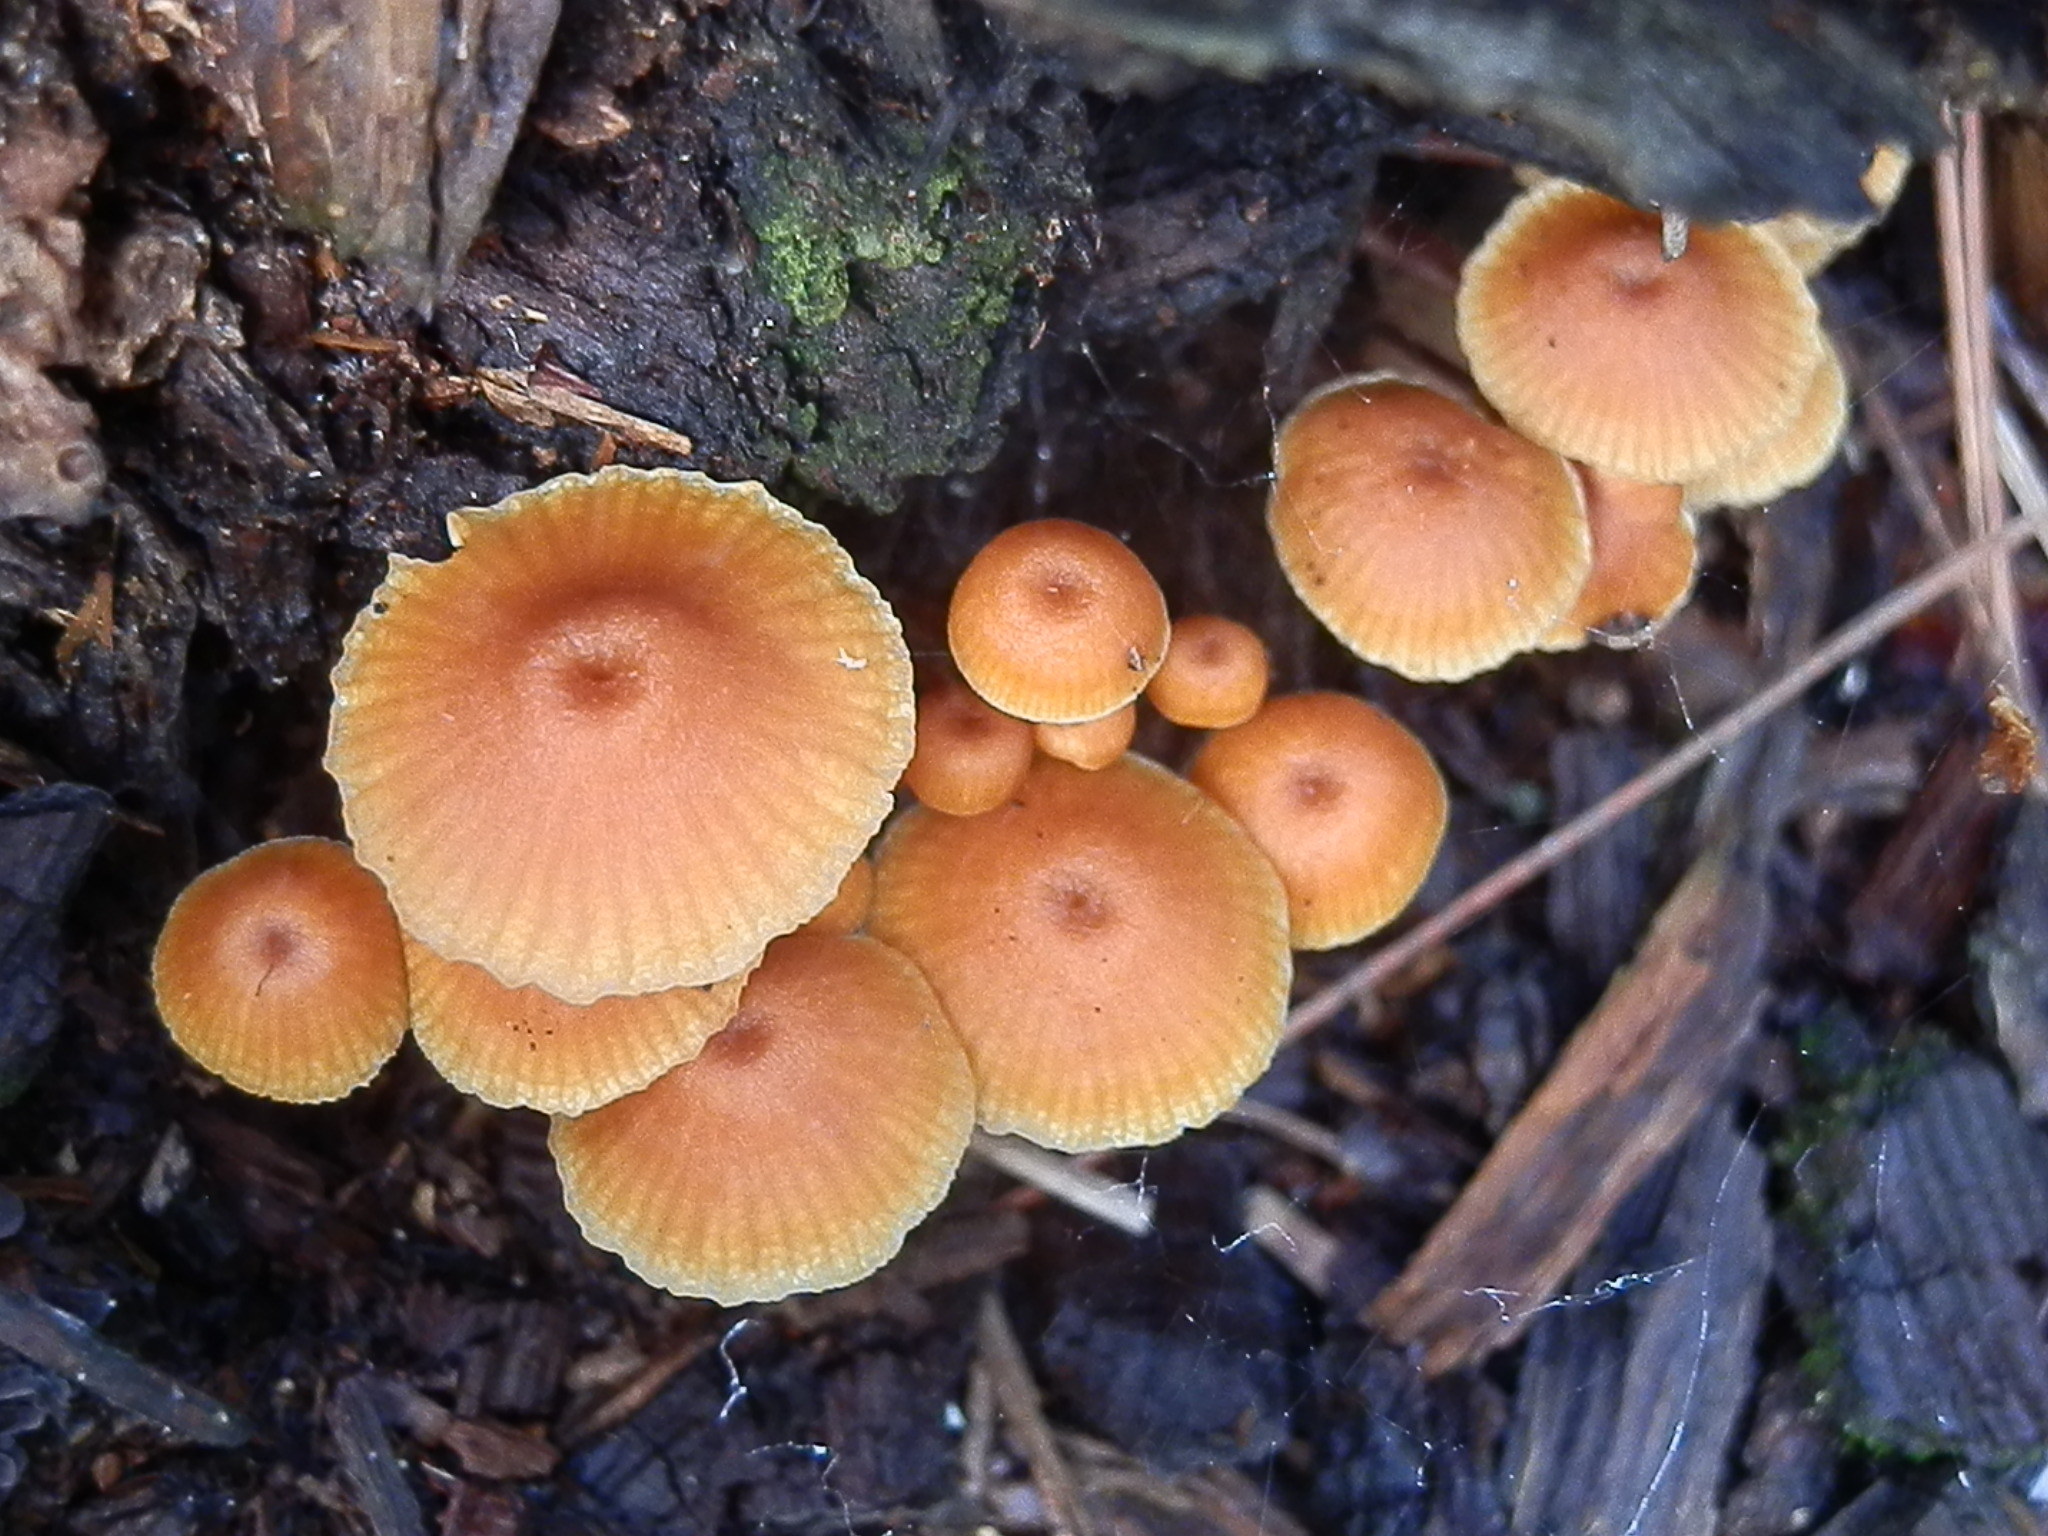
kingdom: Fungi
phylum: Basidiomycota
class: Agaricomycetes
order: Agaricales
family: Mycenaceae
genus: Xeromphalina
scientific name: Xeromphalina enigmatica
